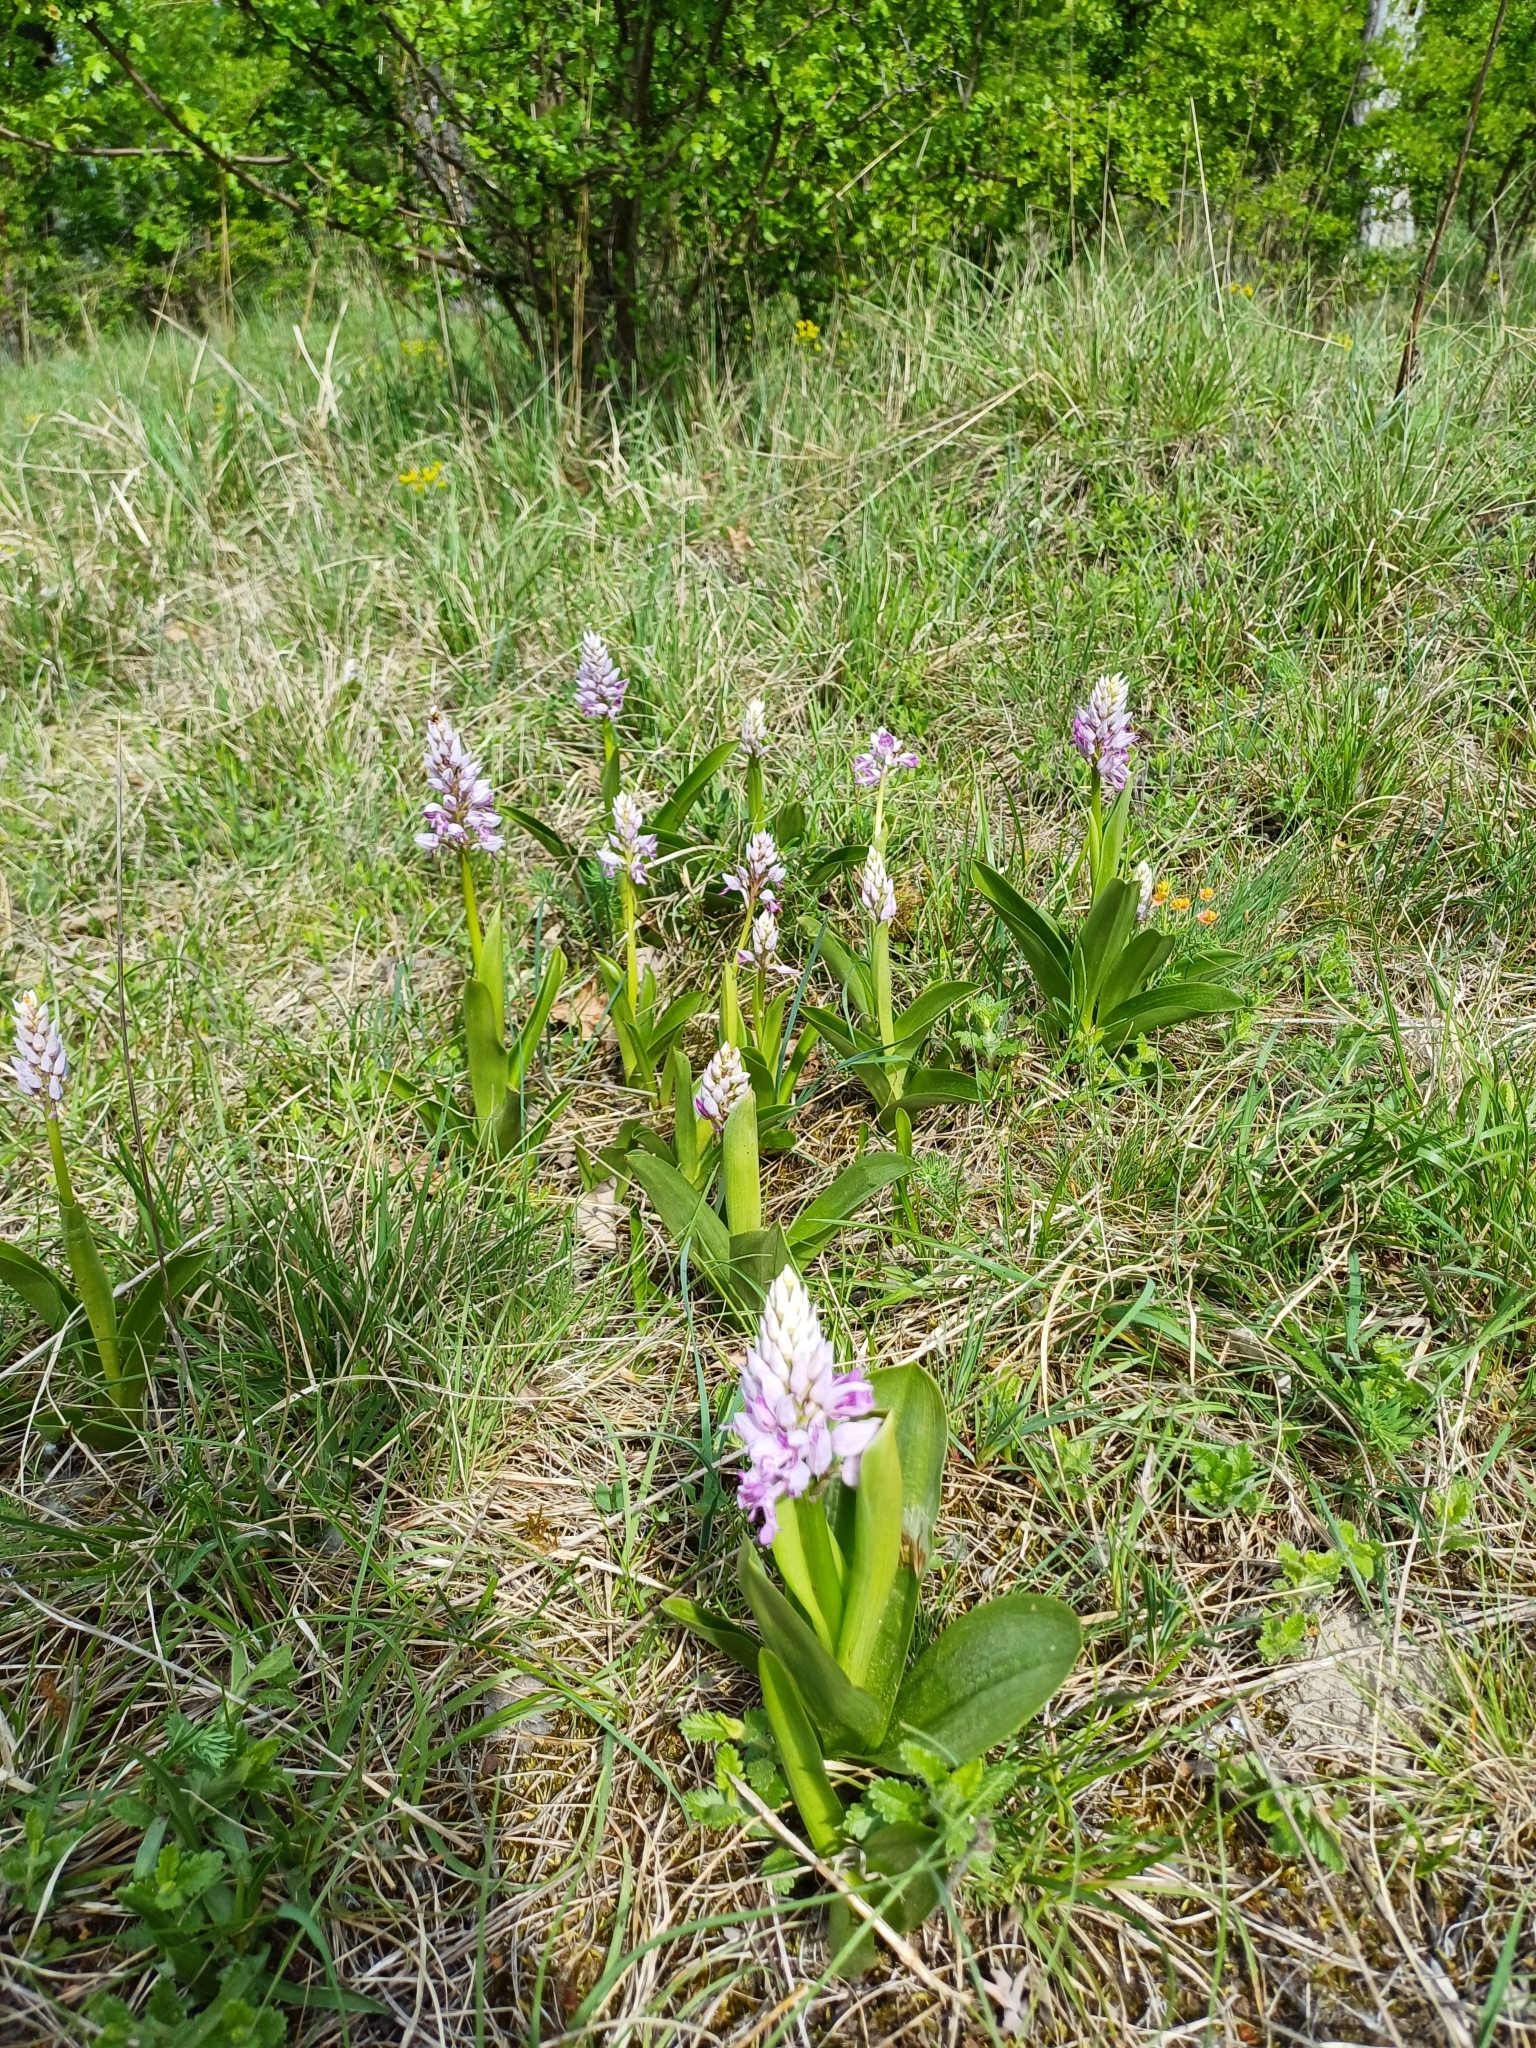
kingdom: Plantae
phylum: Tracheophyta
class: Liliopsida
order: Asparagales
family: Orchidaceae
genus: Orchis
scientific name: Orchis militaris
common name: Military orchid
